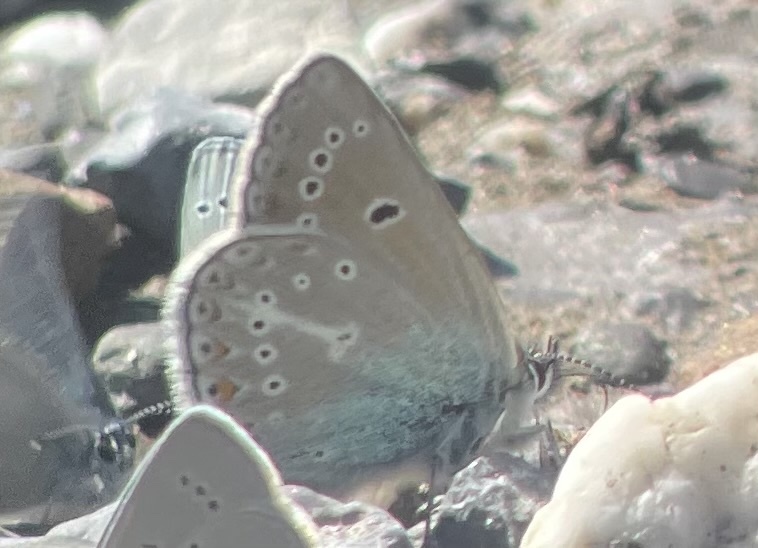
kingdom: Animalia
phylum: Arthropoda
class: Insecta
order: Lepidoptera
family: Lycaenidae
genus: Eumedonia
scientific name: Eumedonia eumedon
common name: Geranium argus
